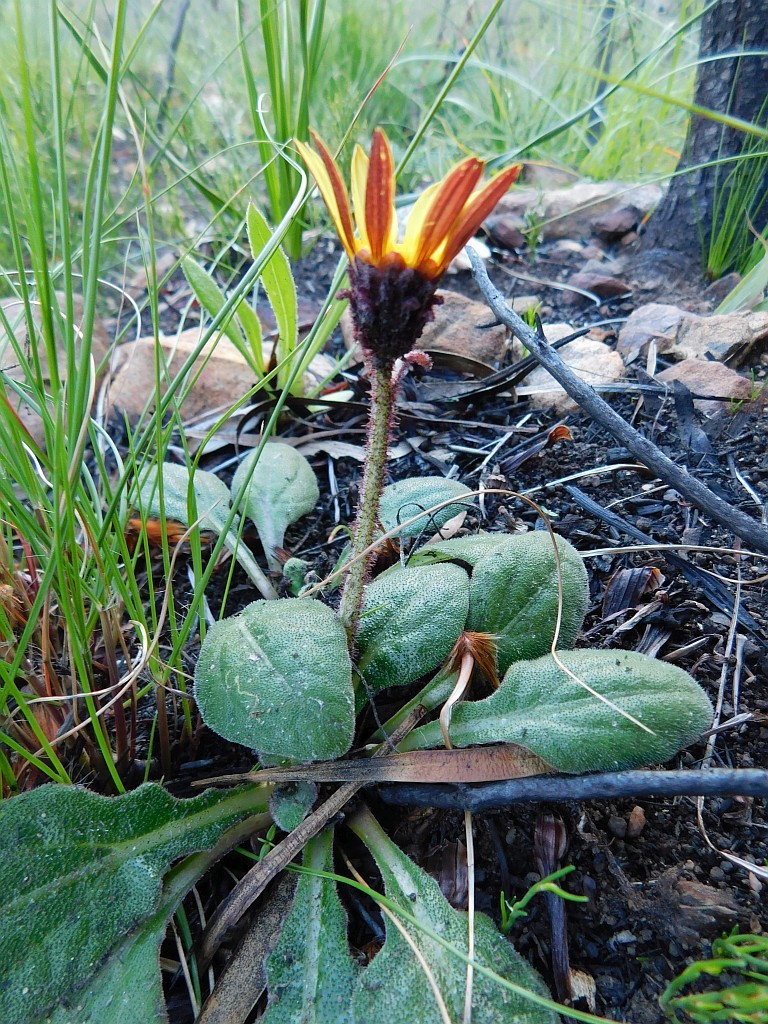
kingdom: Plantae
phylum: Tracheophyta
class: Magnoliopsida
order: Asterales
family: Asteraceae
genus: Haplocarpha
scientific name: Haplocarpha lanata
